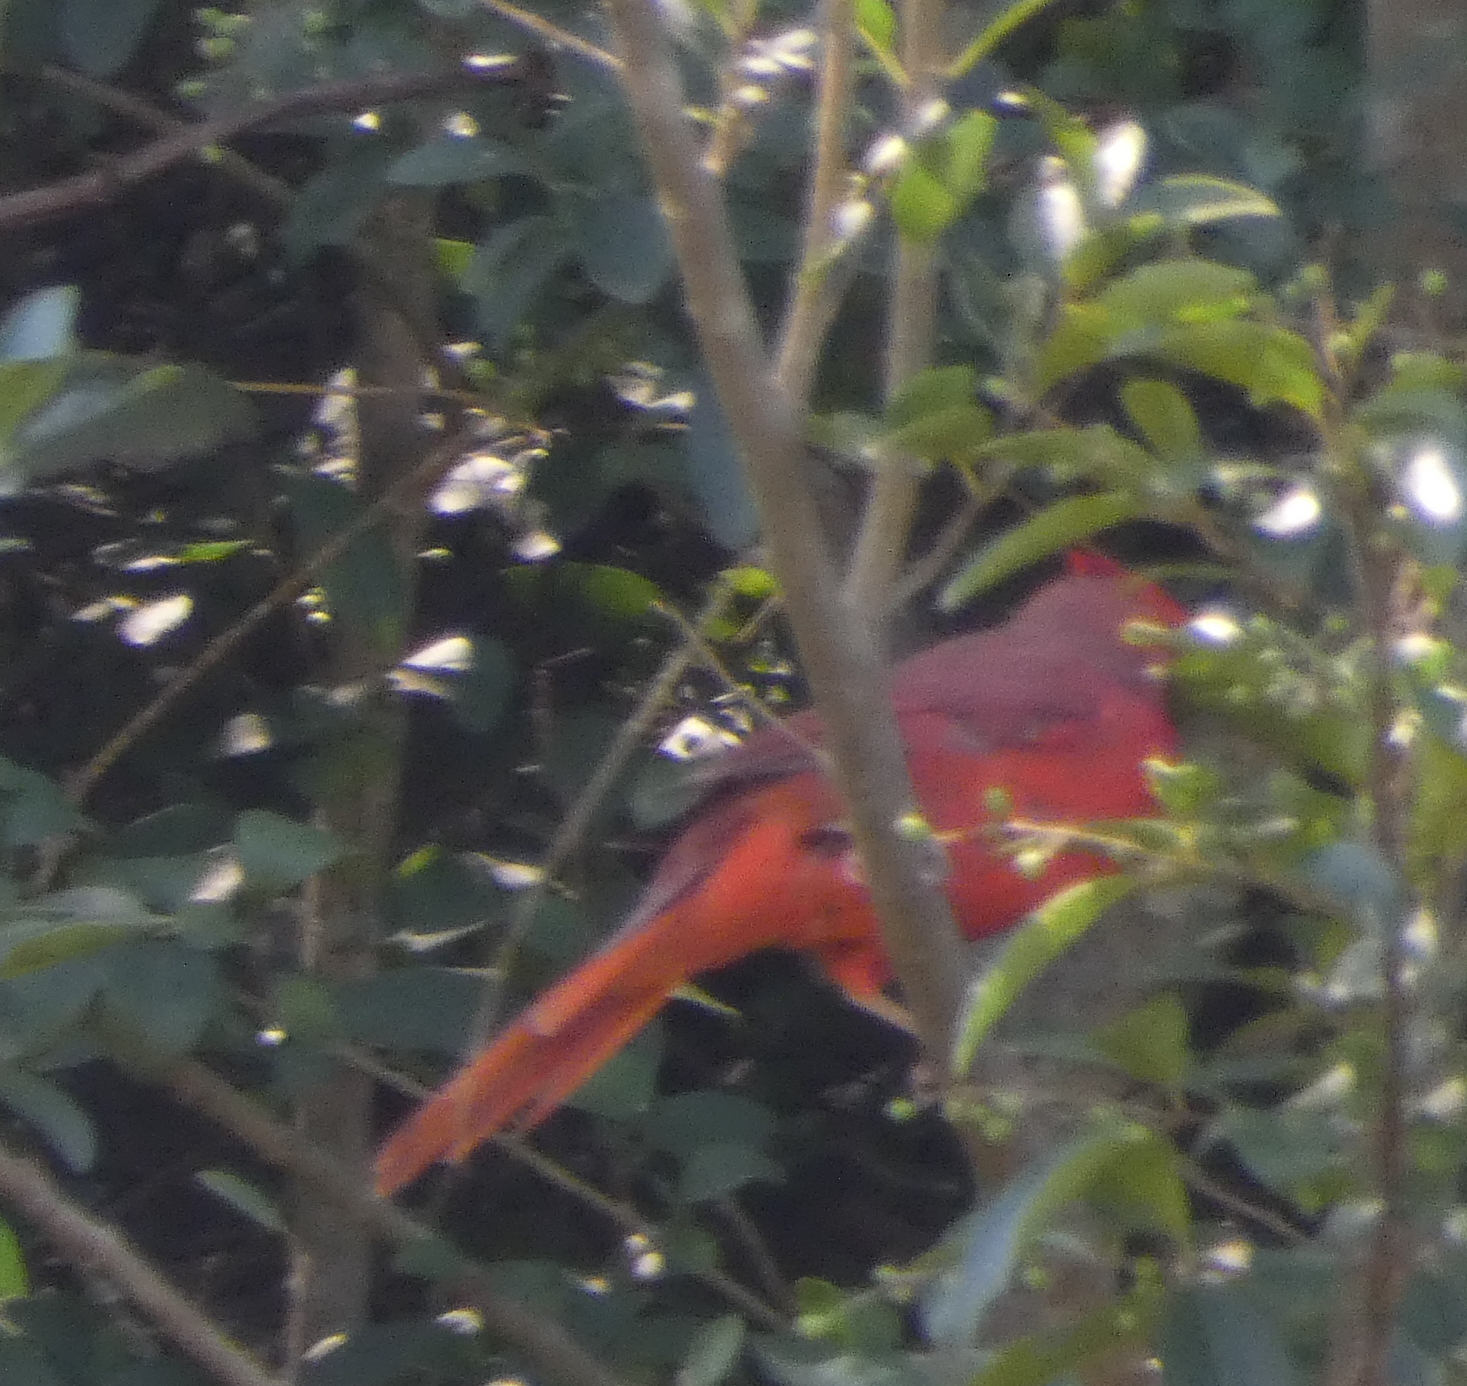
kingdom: Animalia
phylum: Chordata
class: Aves
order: Passeriformes
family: Cardinalidae
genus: Cardinalis
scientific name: Cardinalis cardinalis
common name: Northern cardinal
